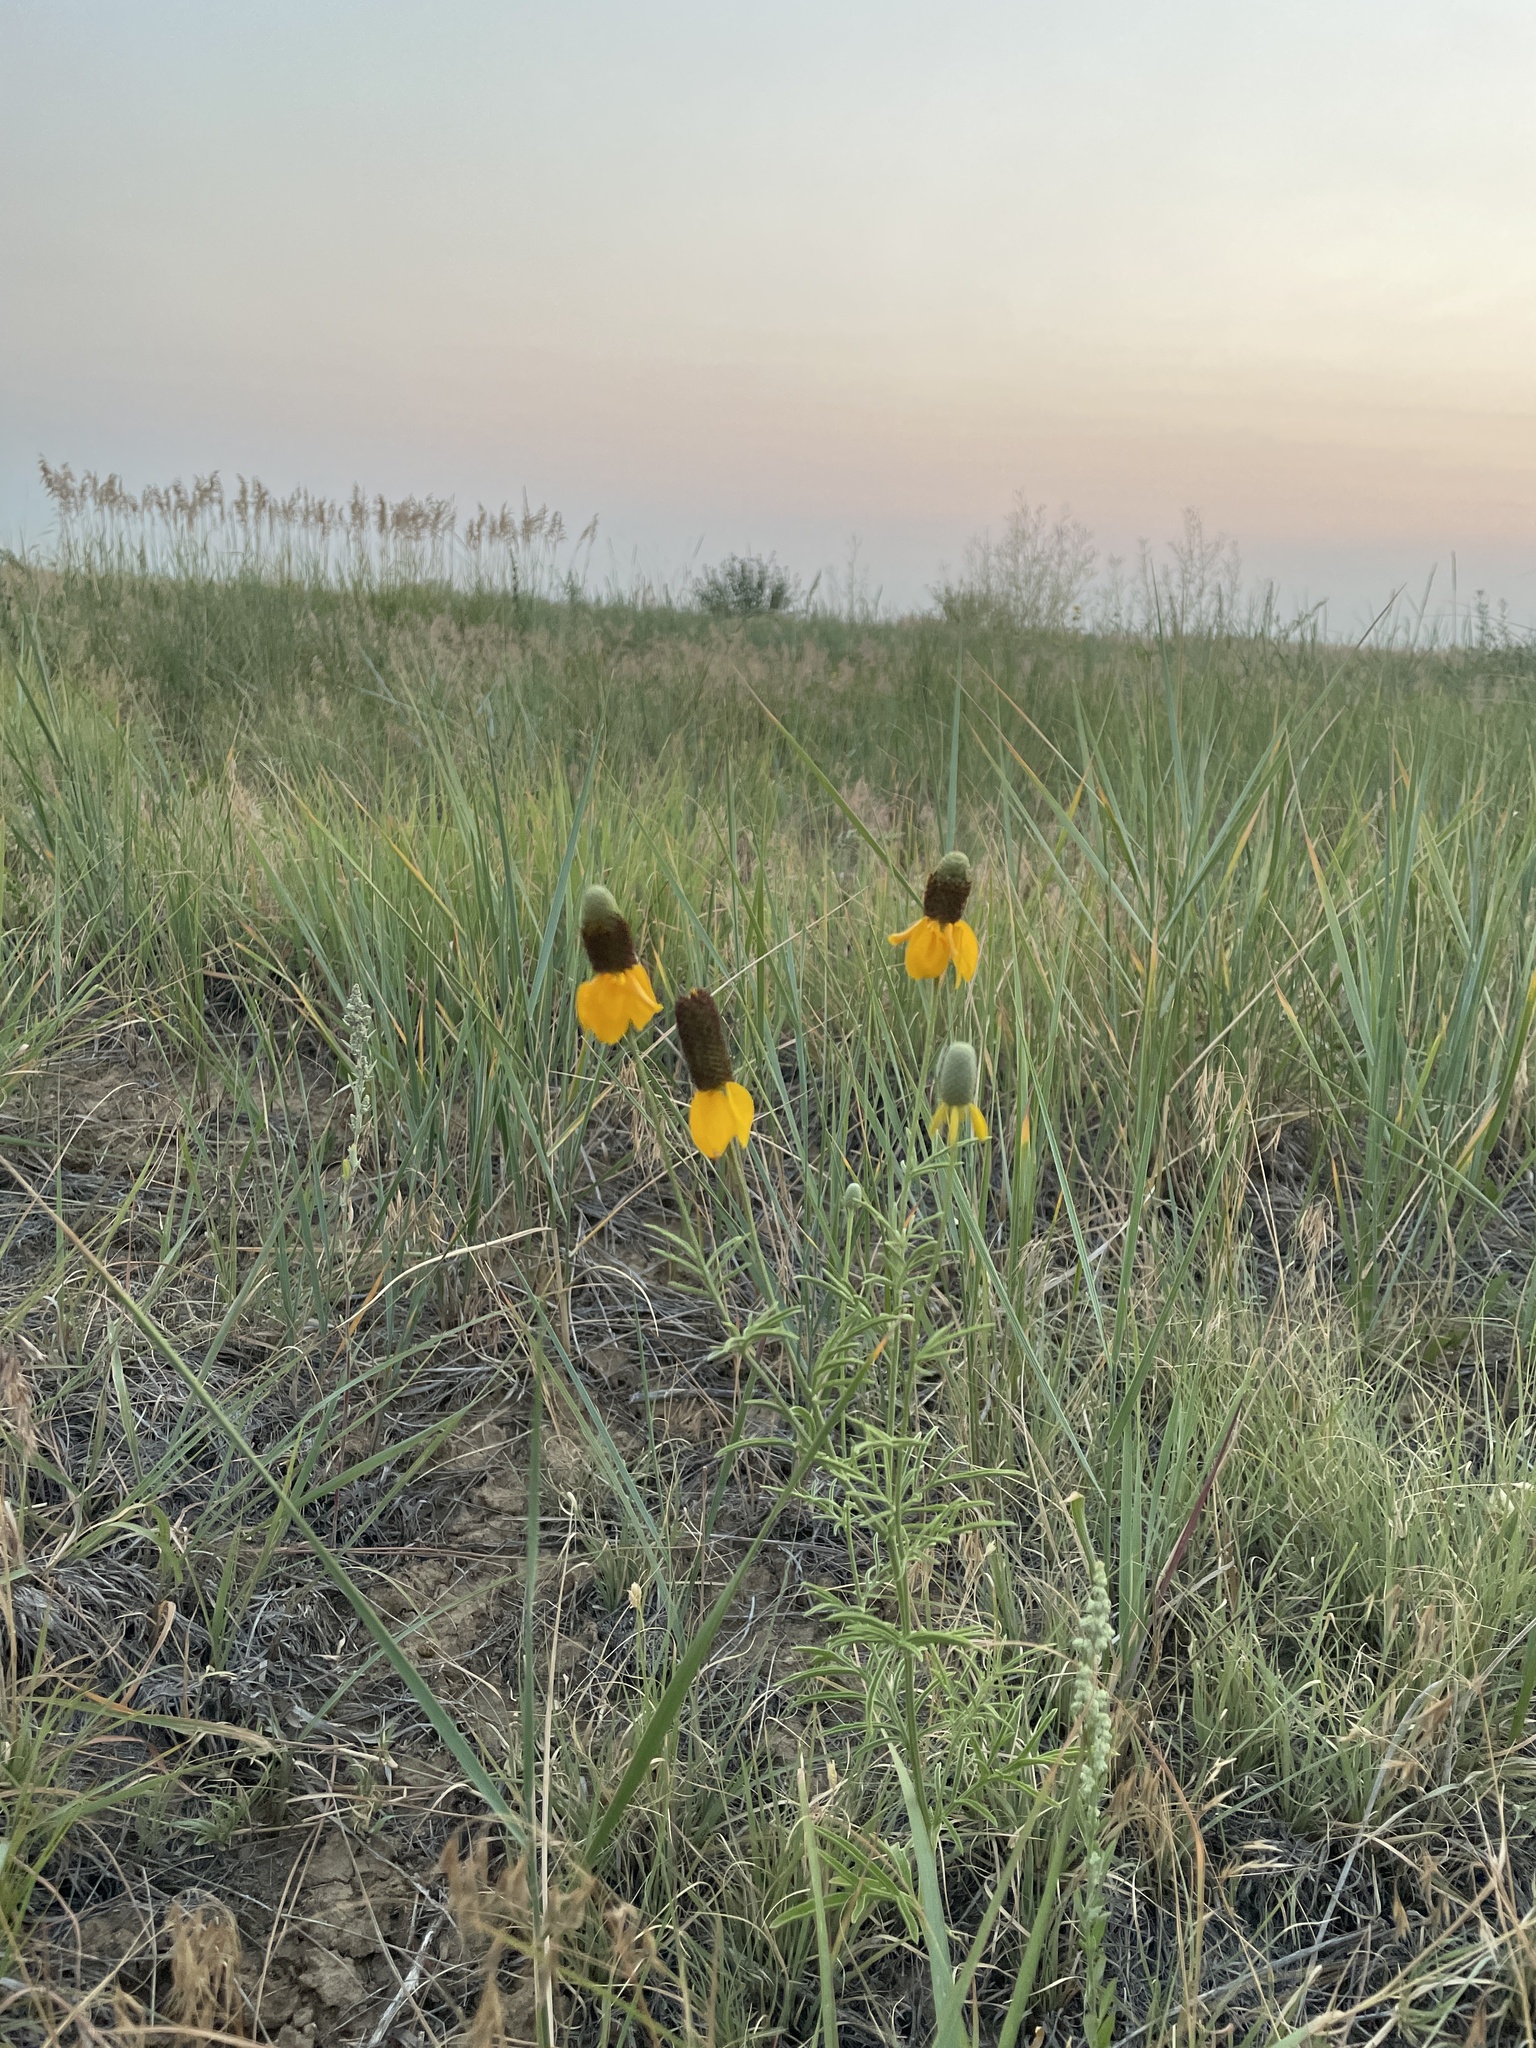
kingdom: Plantae
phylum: Tracheophyta
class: Magnoliopsida
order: Asterales
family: Asteraceae
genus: Ratibida
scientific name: Ratibida columnifera
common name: Prairie coneflower
